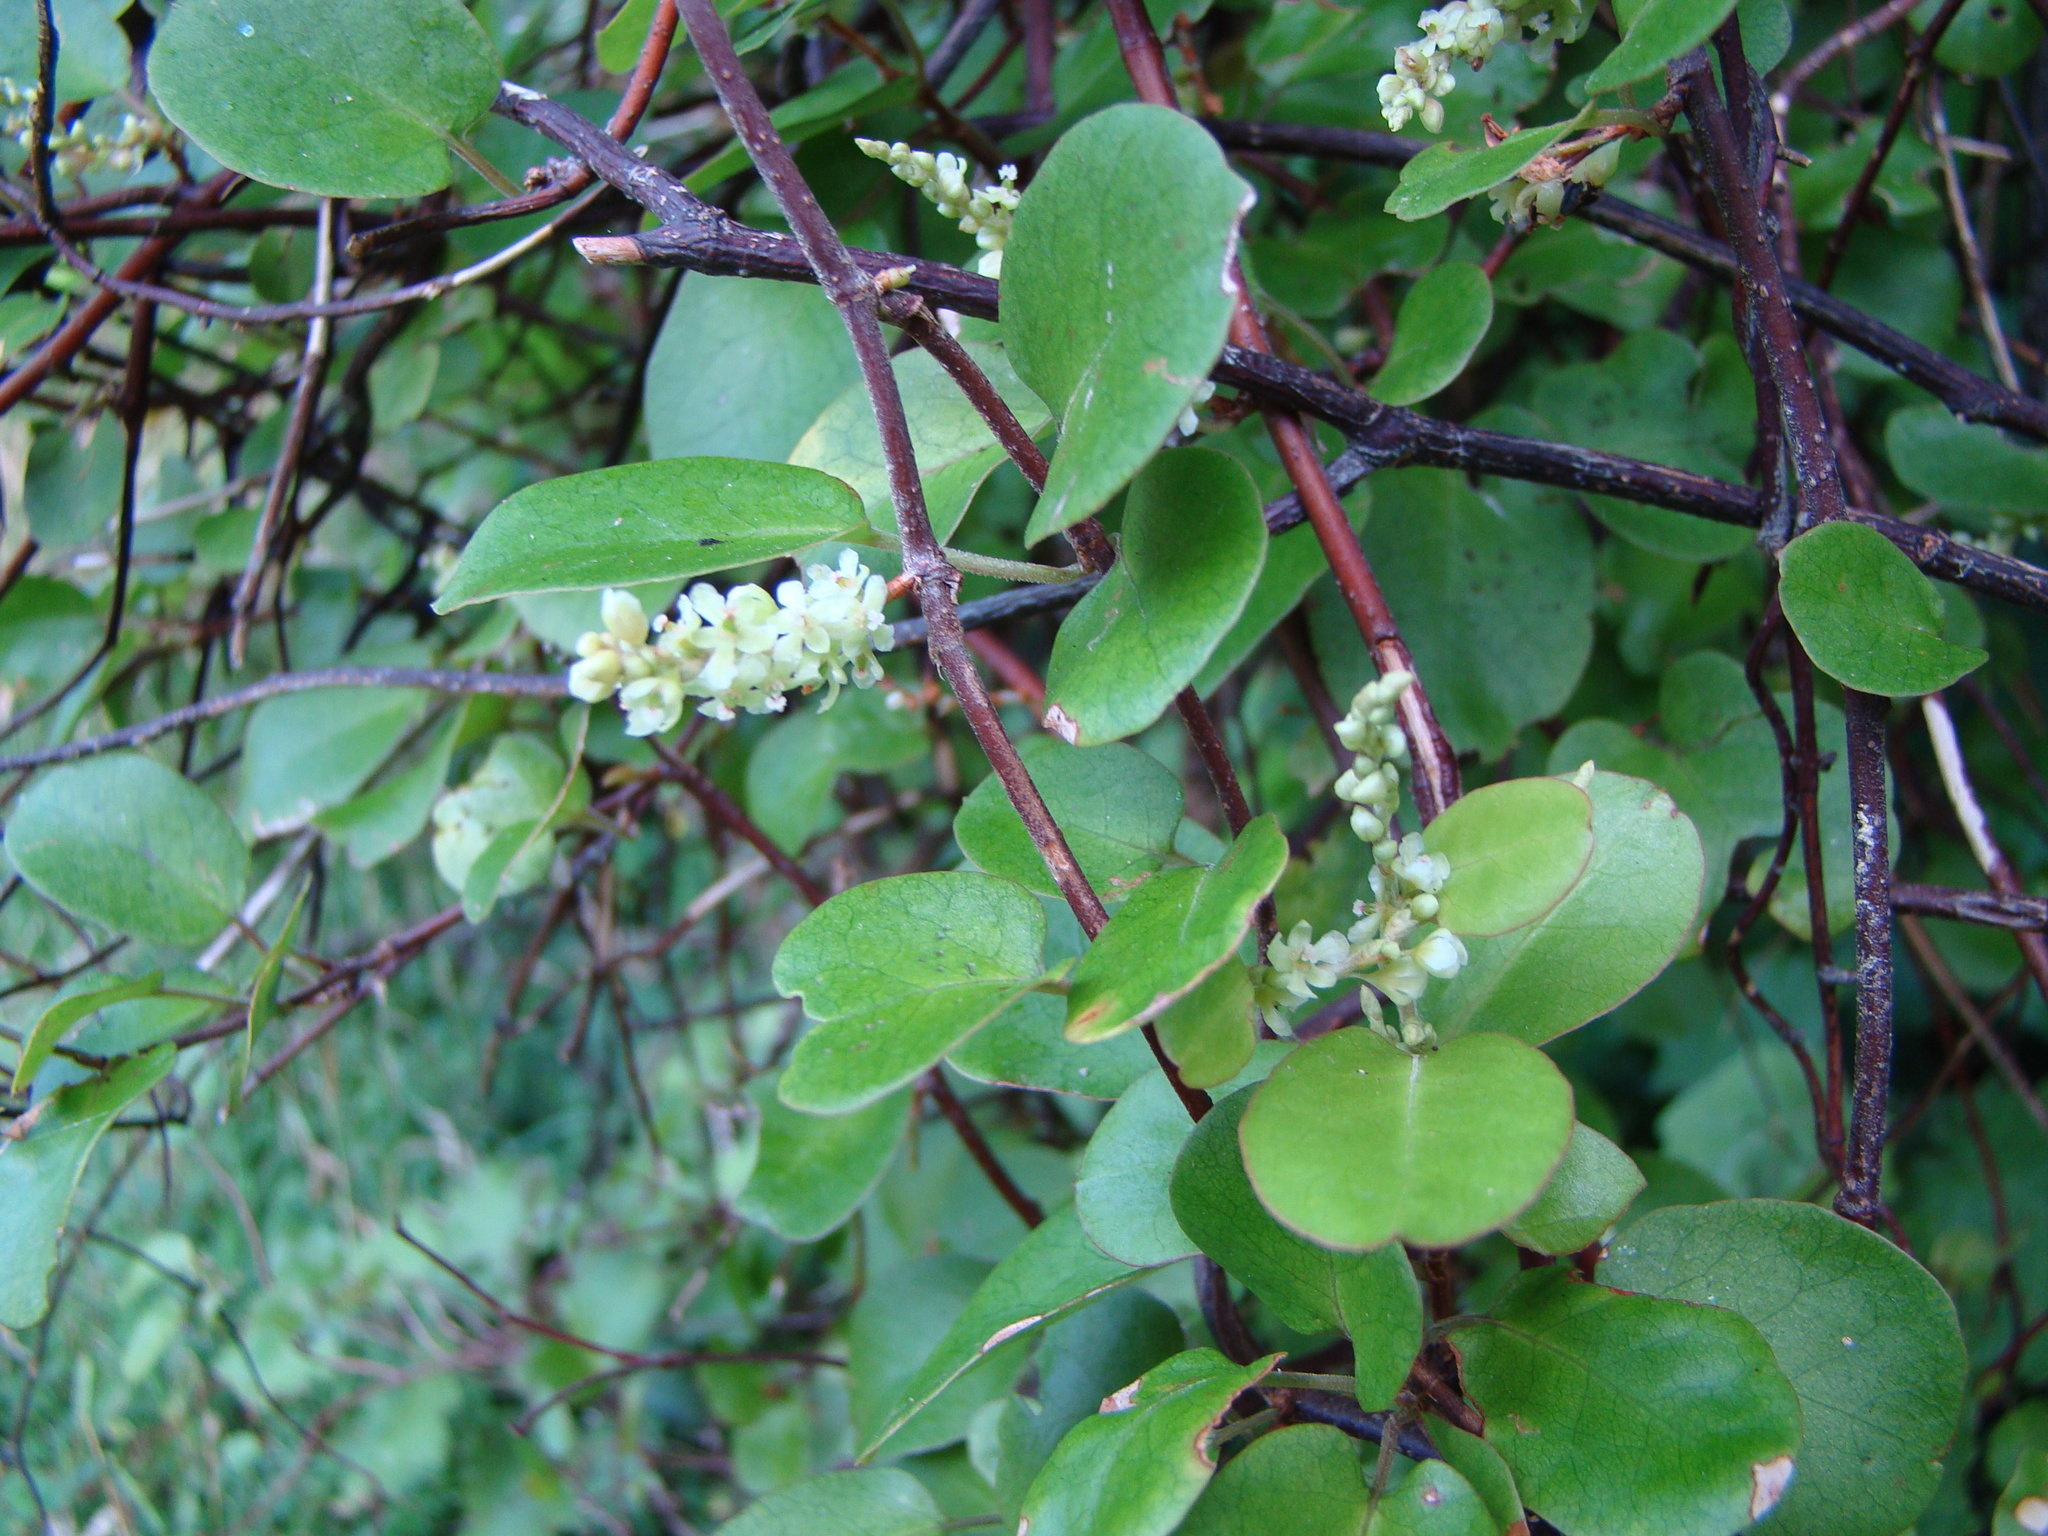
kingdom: Plantae
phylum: Tracheophyta
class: Magnoliopsida
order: Caryophyllales
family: Polygonaceae
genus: Muehlenbeckia
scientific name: Muehlenbeckia complexa
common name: Wireplant
